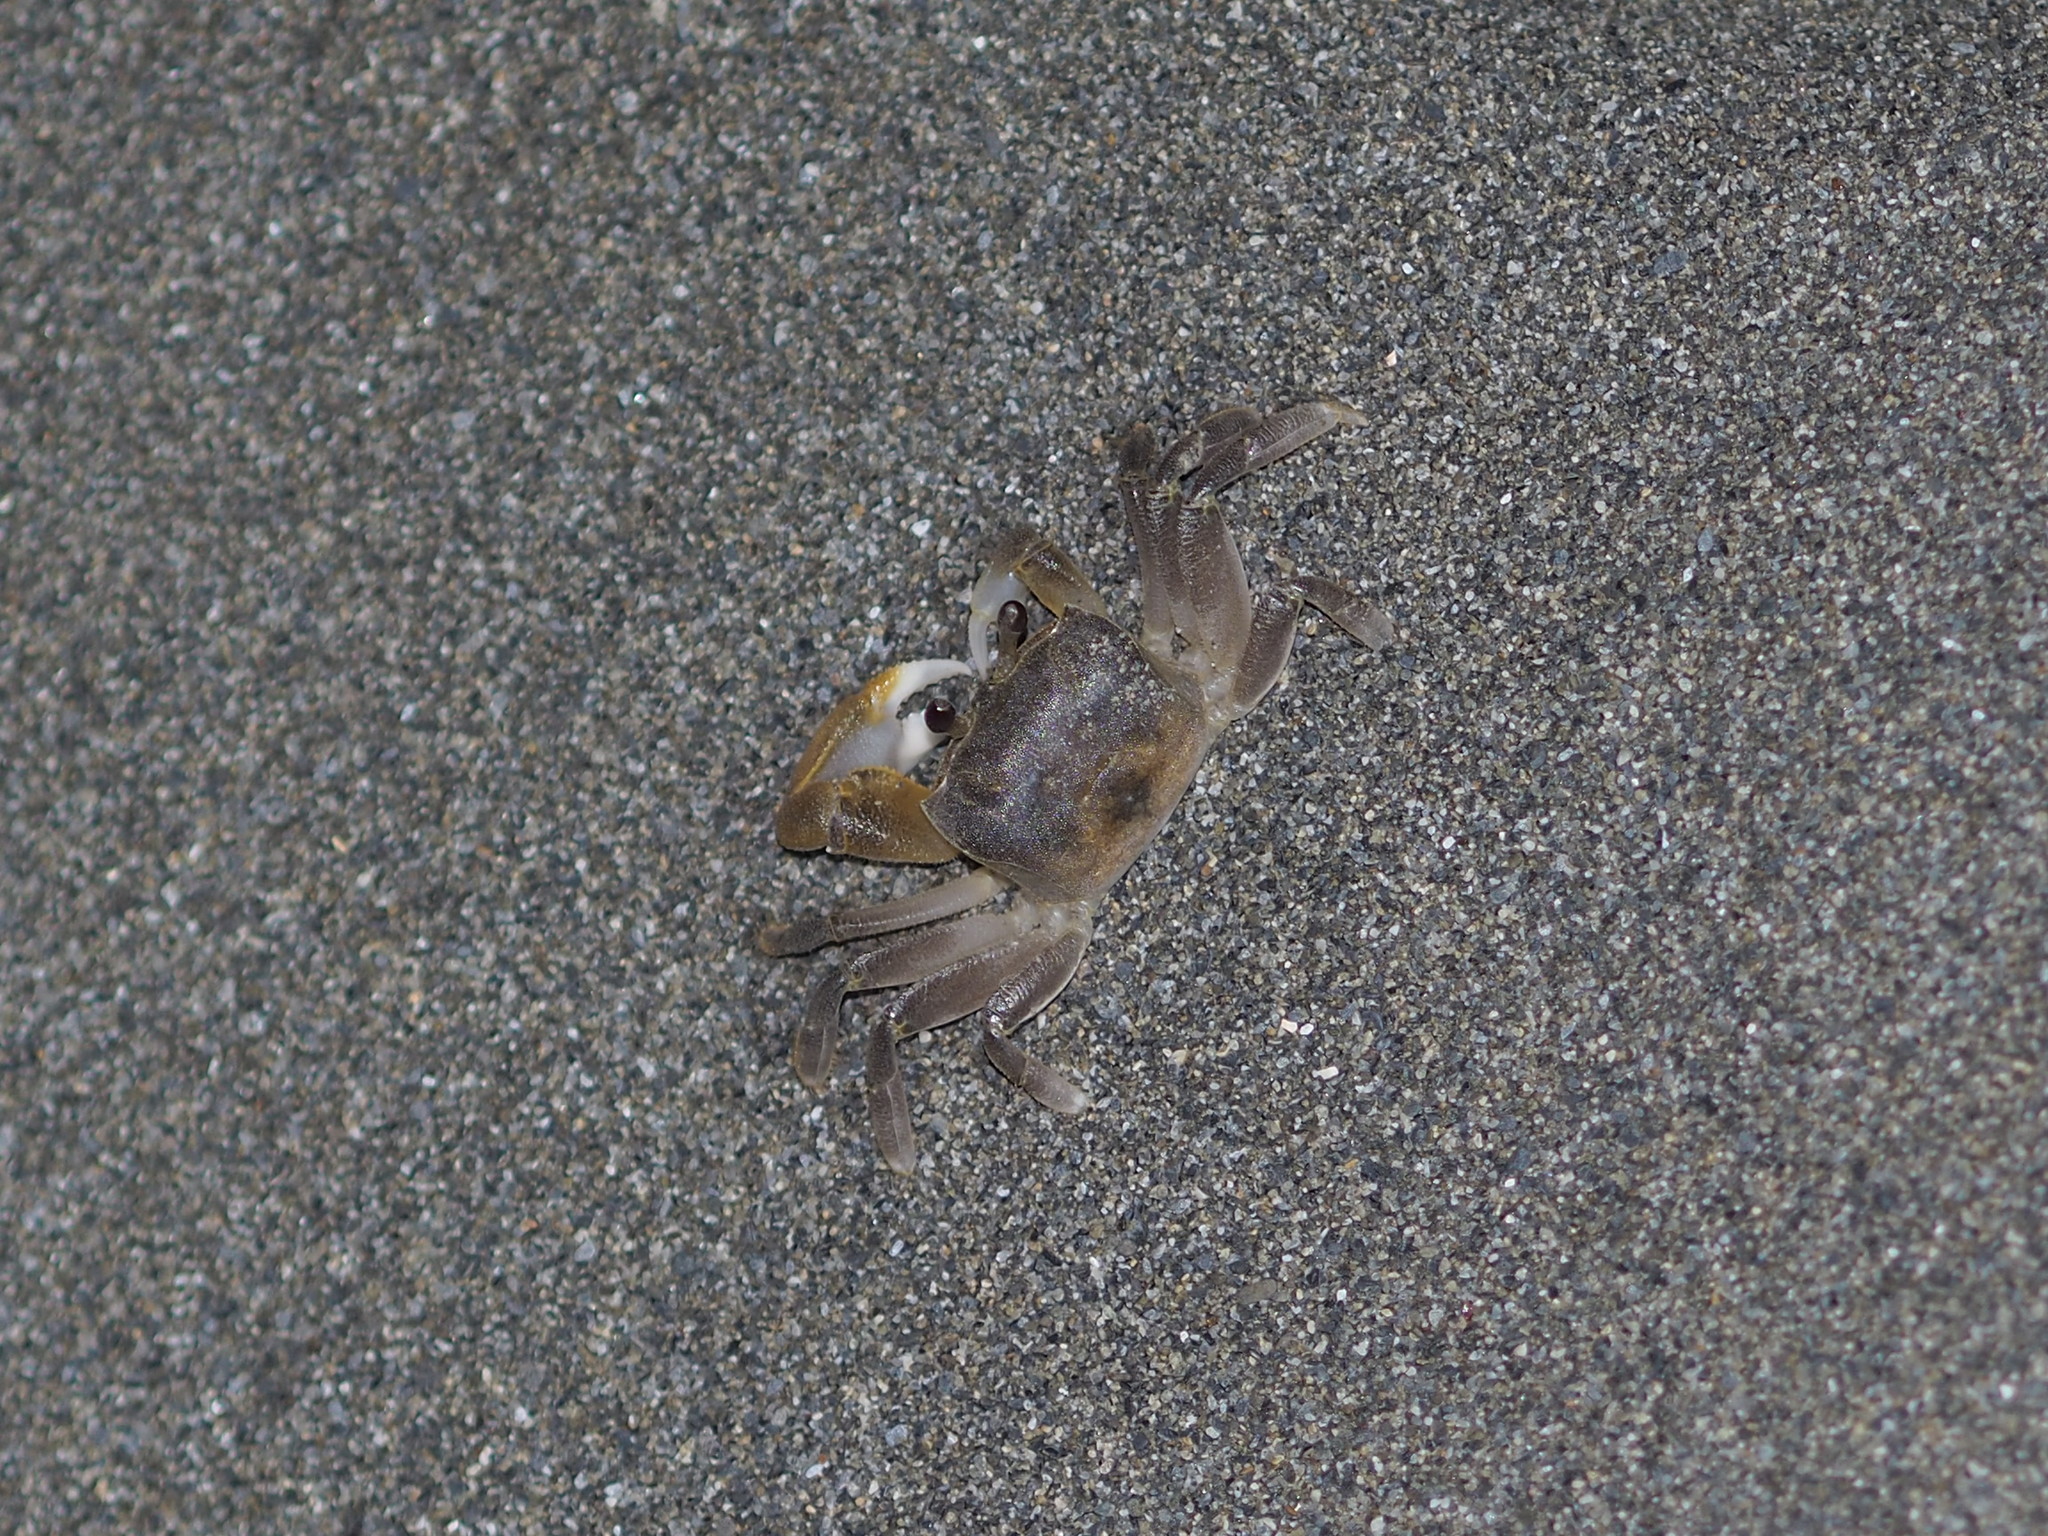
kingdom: Animalia
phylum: Arthropoda
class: Malacostraca
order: Decapoda
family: Ocypodidae
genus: Ocypode
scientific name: Ocypode sinensis
